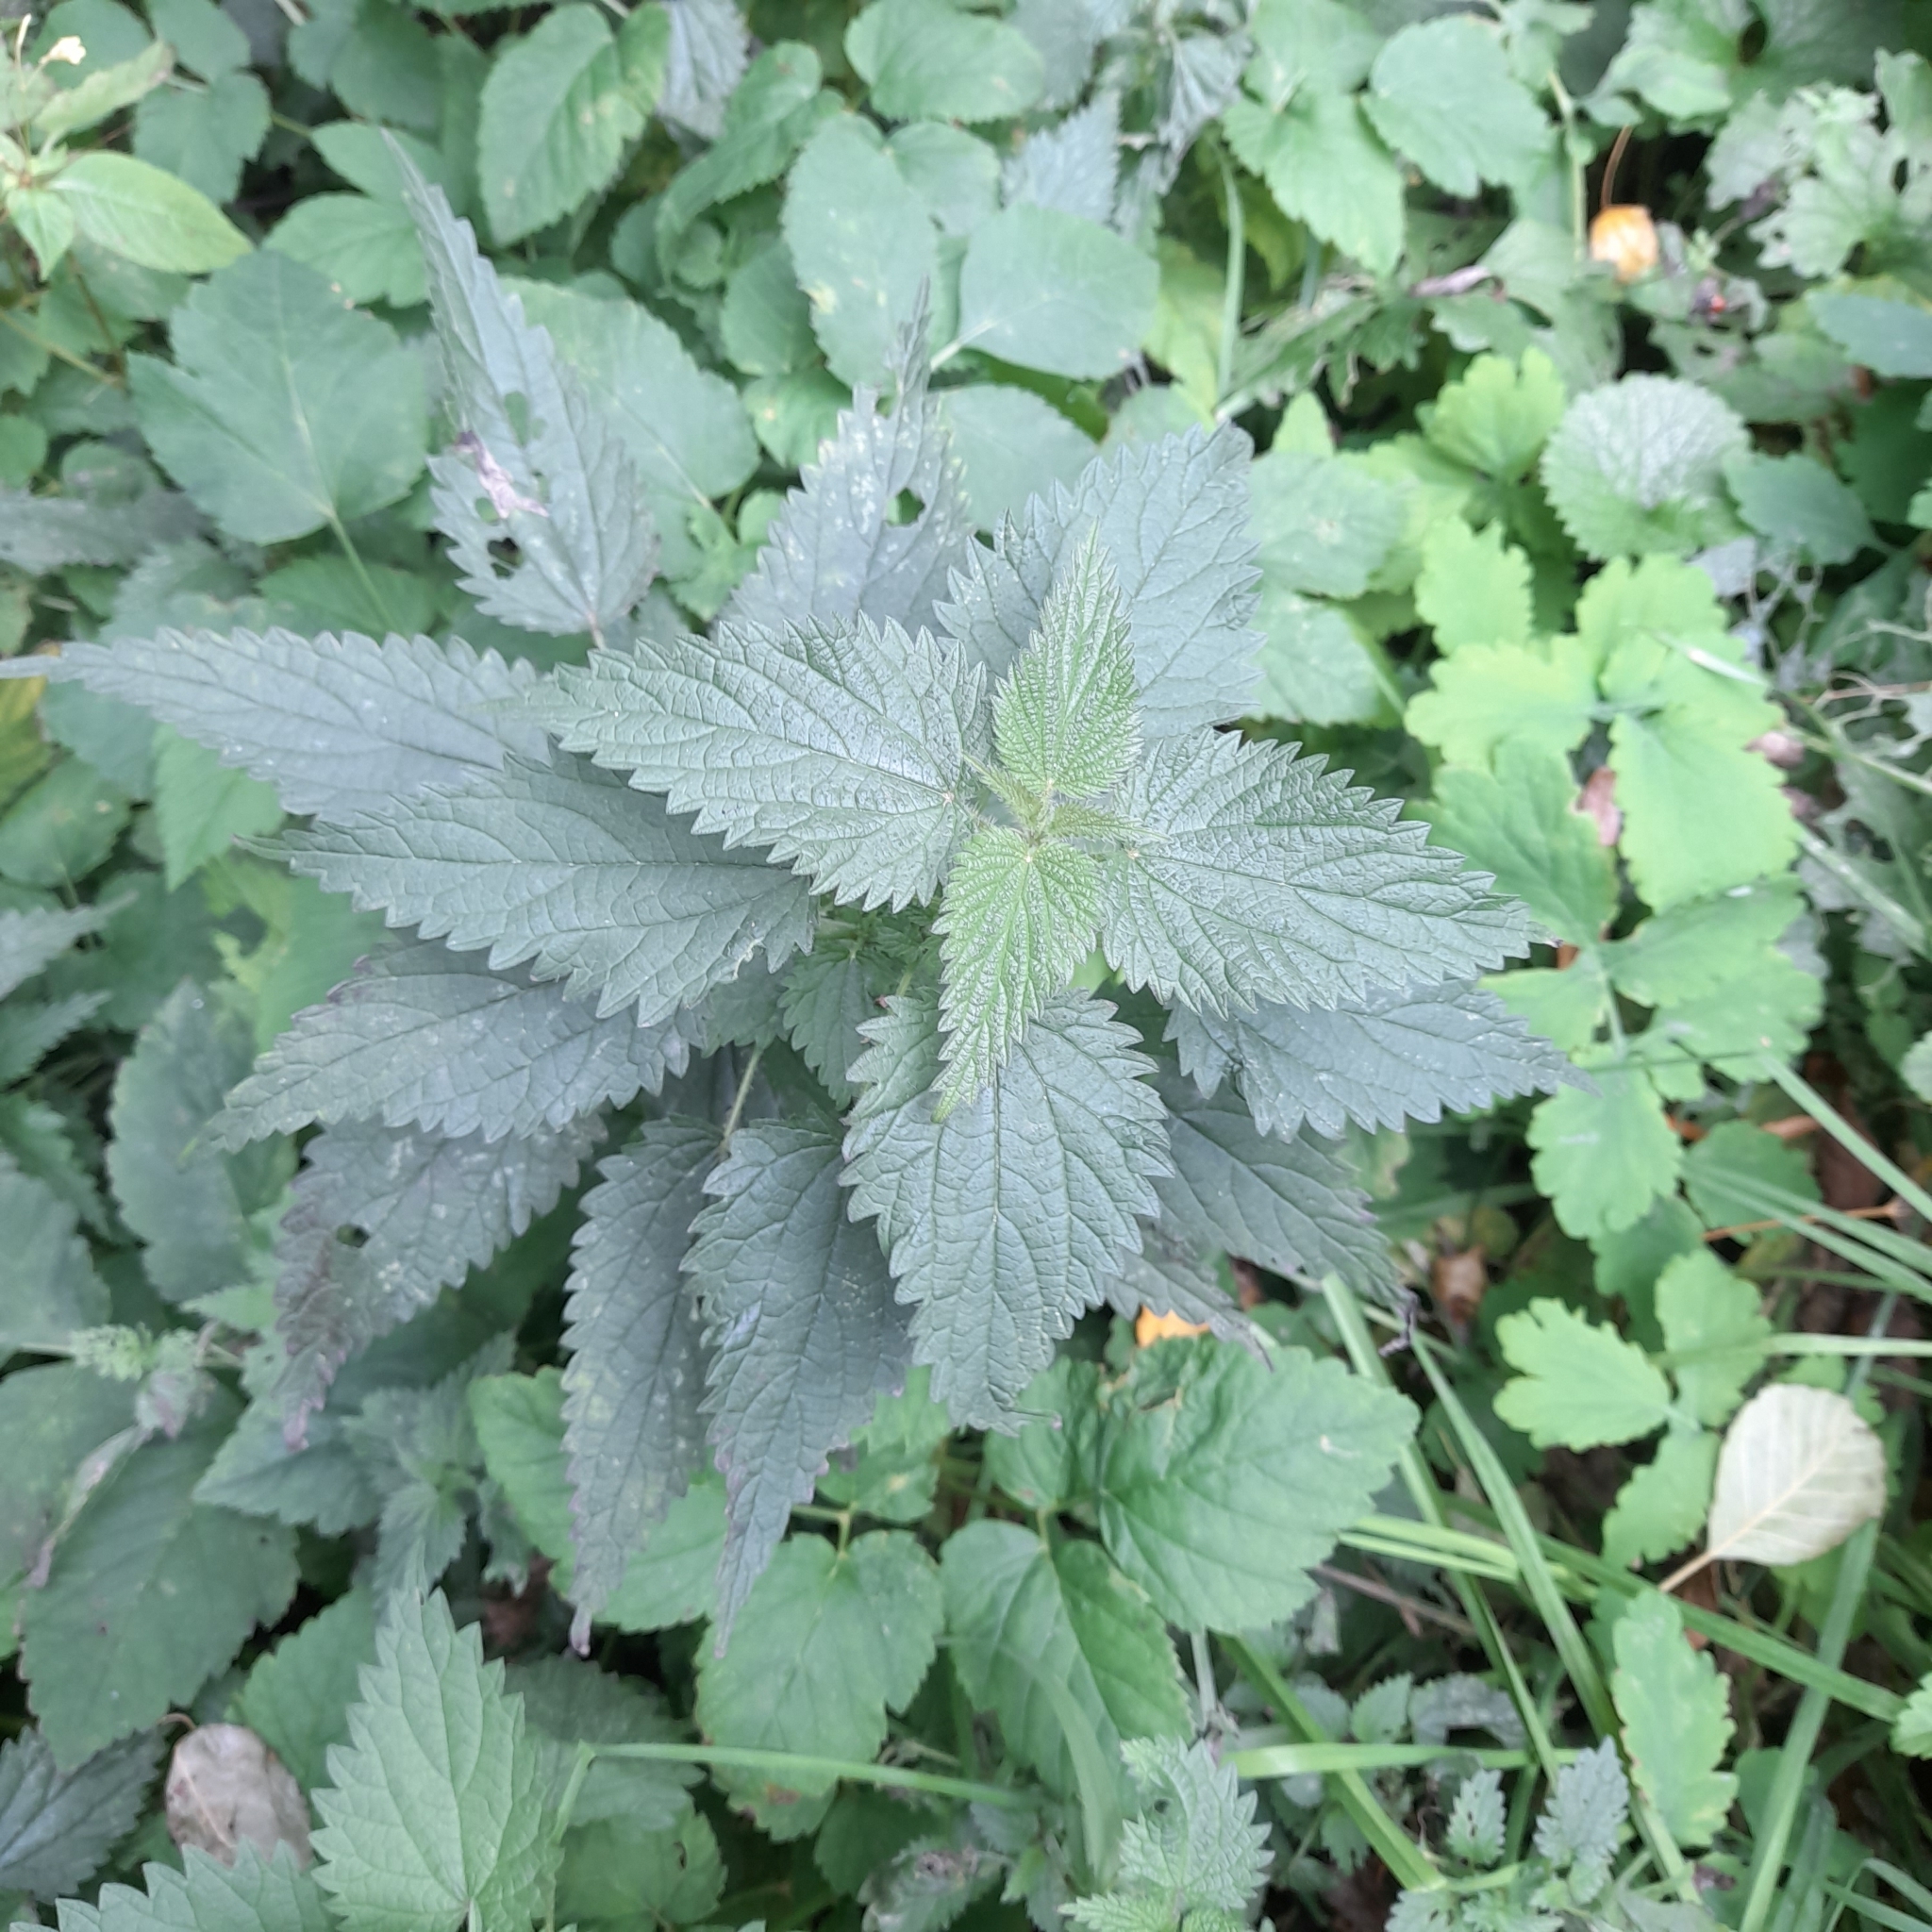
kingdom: Plantae
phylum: Tracheophyta
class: Magnoliopsida
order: Rosales
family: Urticaceae
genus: Urtica
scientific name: Urtica dioica
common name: Common nettle
